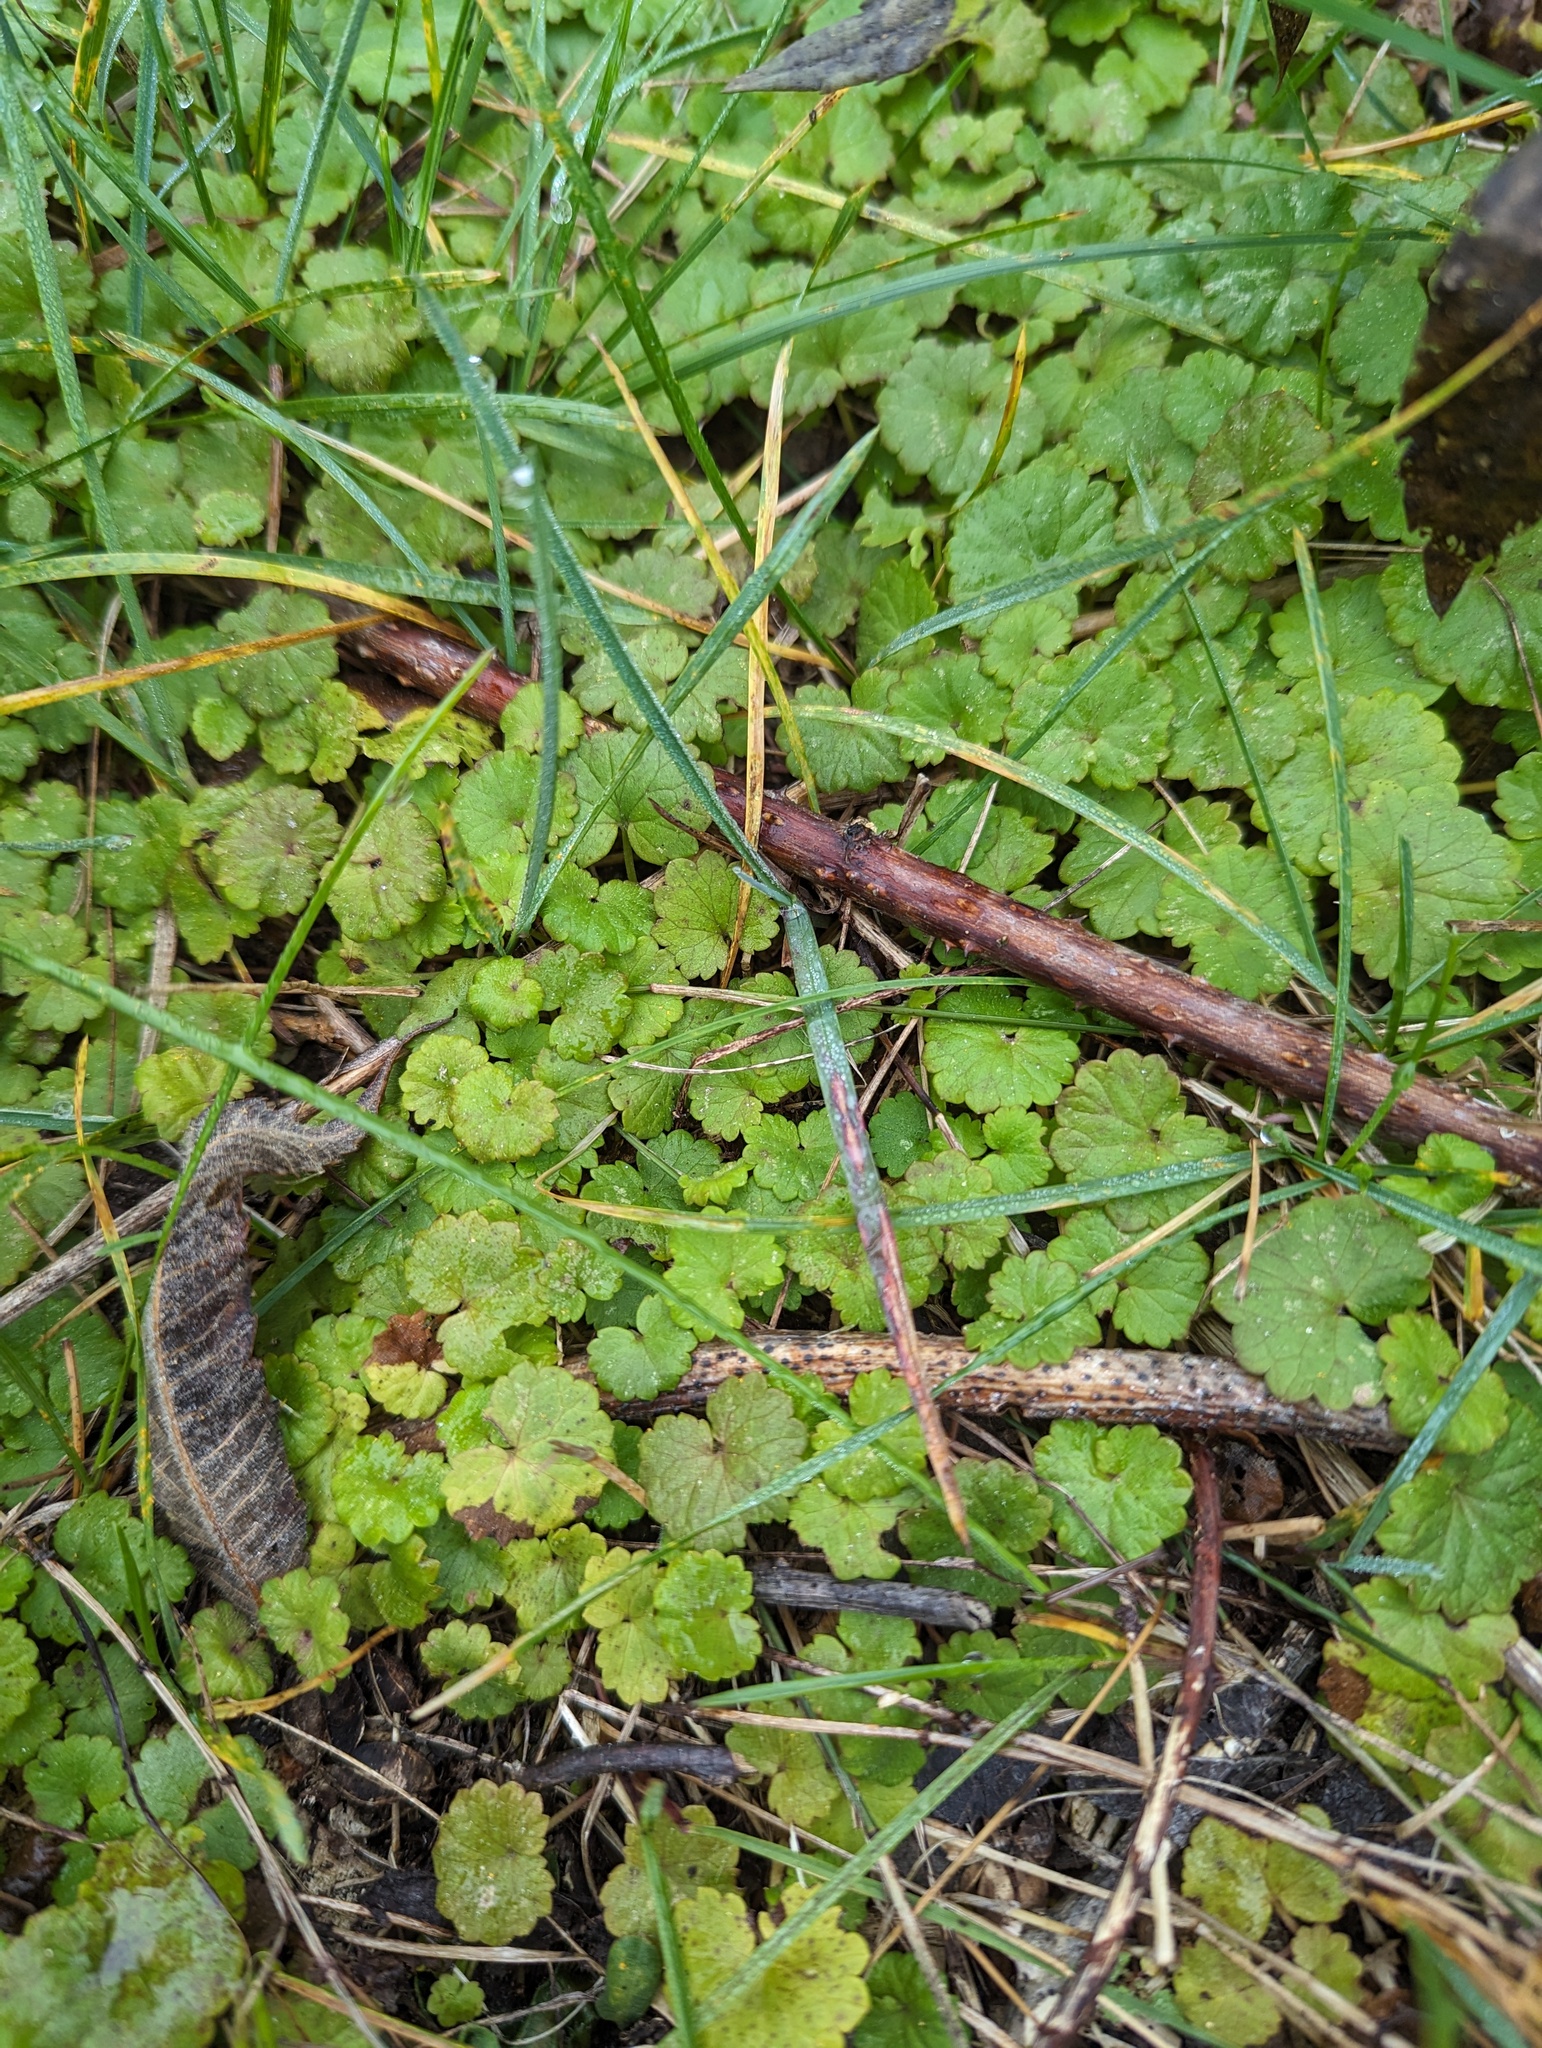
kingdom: Plantae
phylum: Tracheophyta
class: Magnoliopsida
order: Lamiales
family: Lamiaceae
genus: Glechoma
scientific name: Glechoma hederacea
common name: Ground ivy
